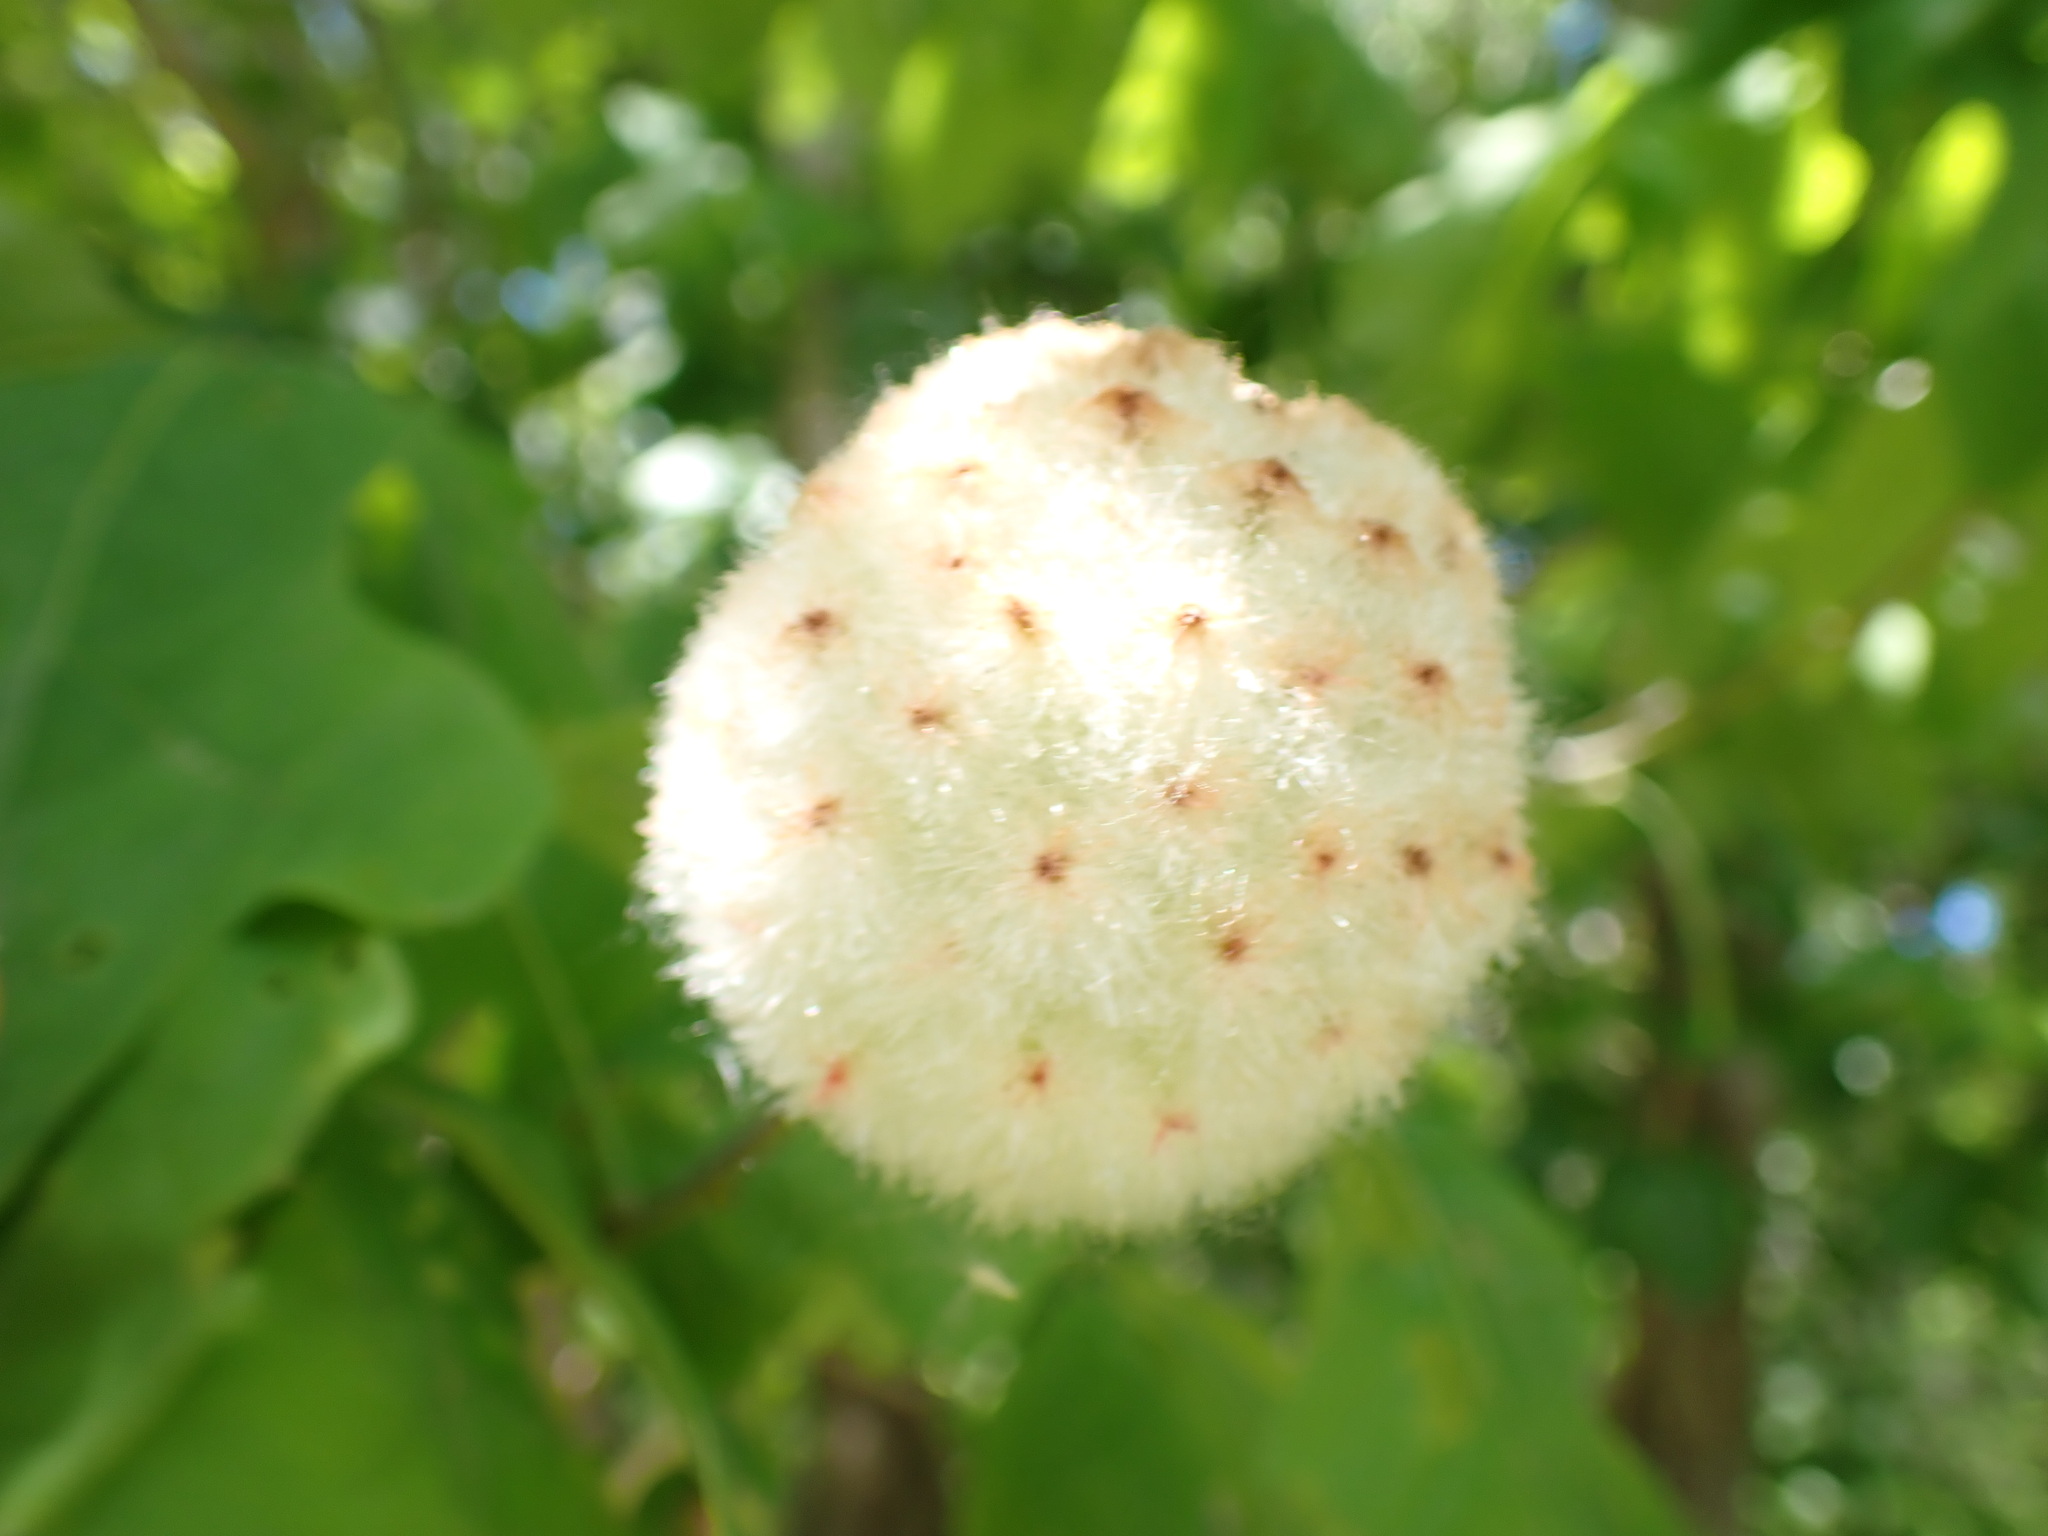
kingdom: Animalia
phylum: Arthropoda
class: Insecta
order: Hymenoptera
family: Cynipidae
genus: Callirhytis
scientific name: Callirhytis
